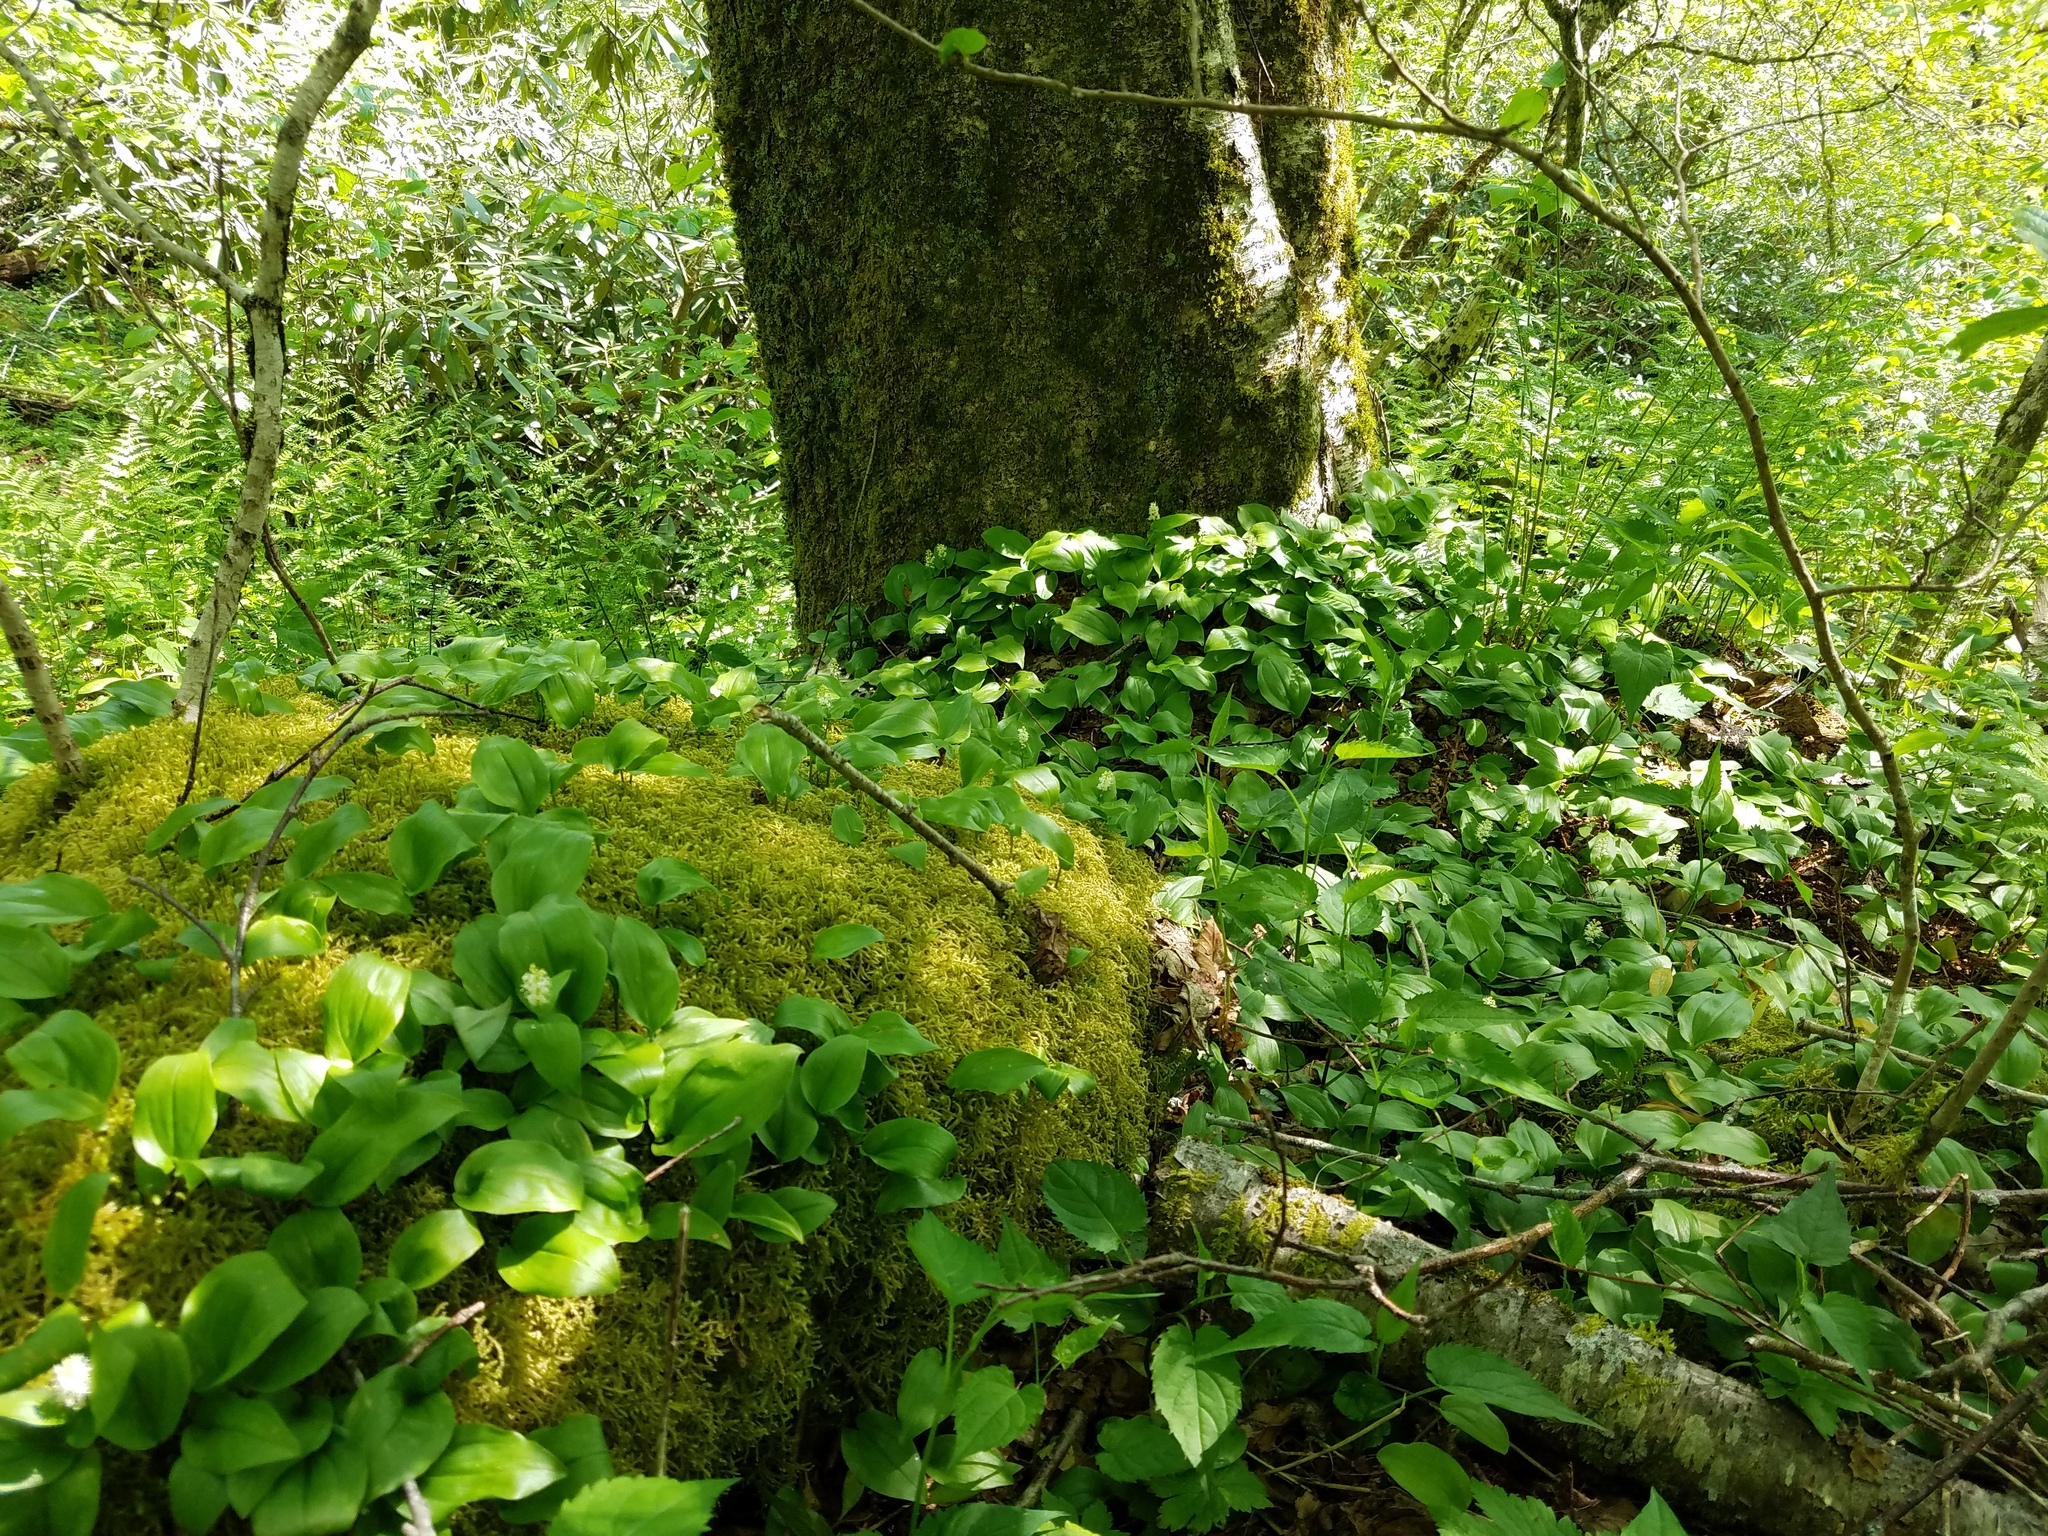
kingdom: Plantae
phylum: Tracheophyta
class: Liliopsida
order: Asparagales
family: Asparagaceae
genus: Maianthemum
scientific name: Maianthemum canadense
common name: False lily-of-the-valley
